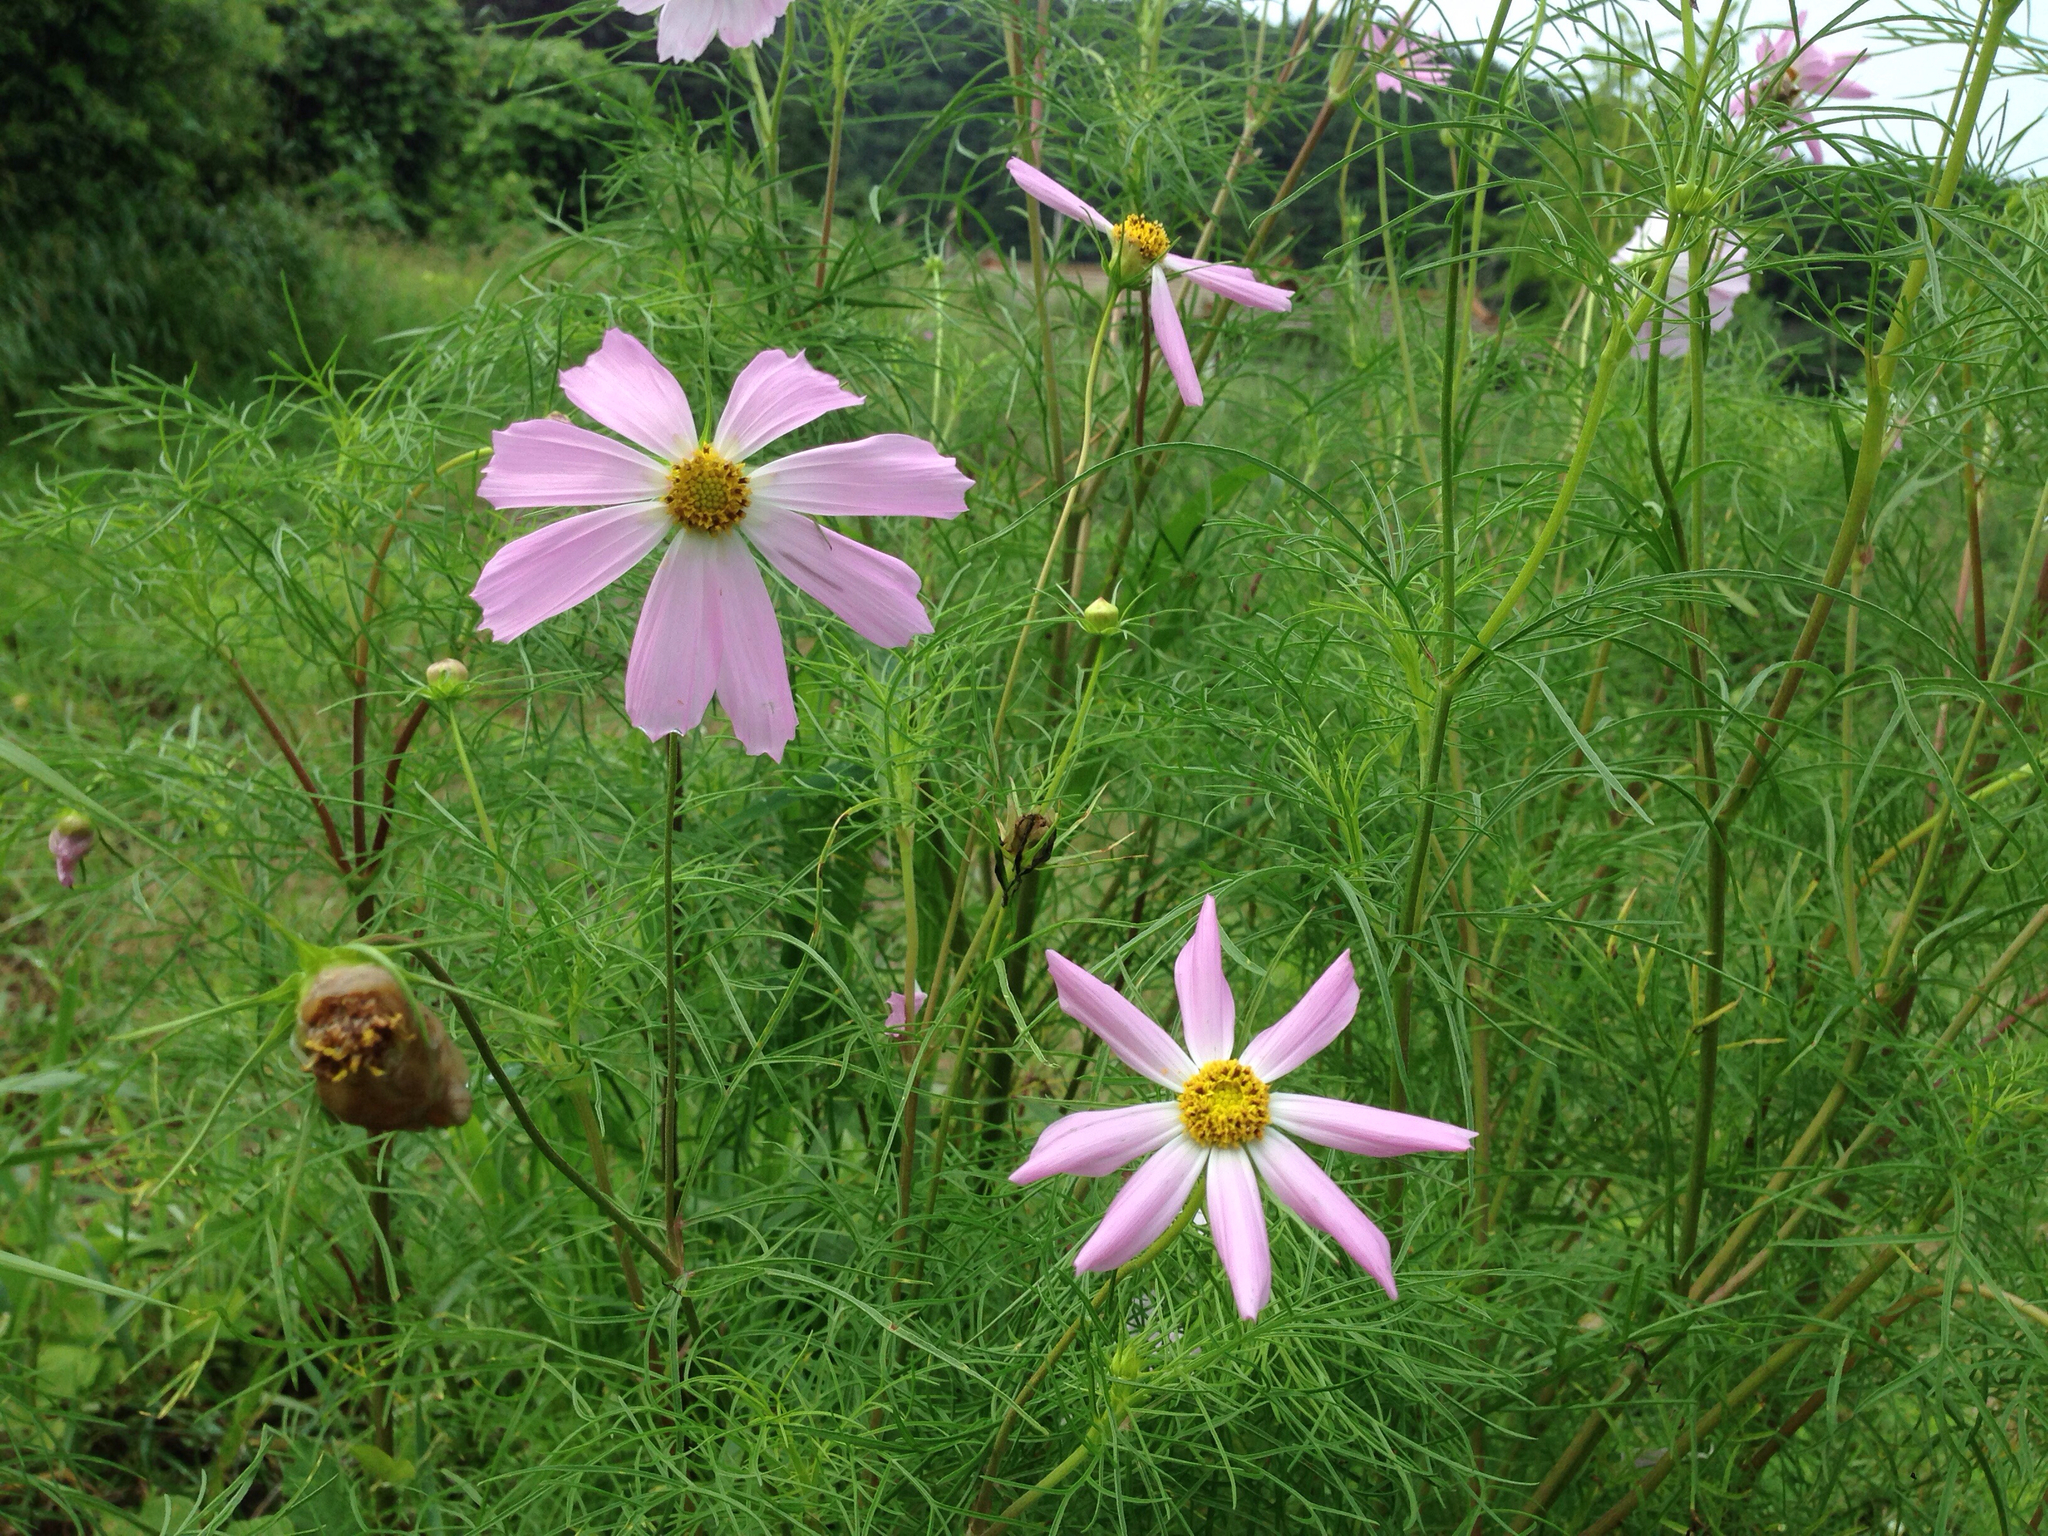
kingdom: Plantae
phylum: Tracheophyta
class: Magnoliopsida
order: Asterales
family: Asteraceae
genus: Cosmos
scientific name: Cosmos bipinnatus
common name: Garden cosmos
